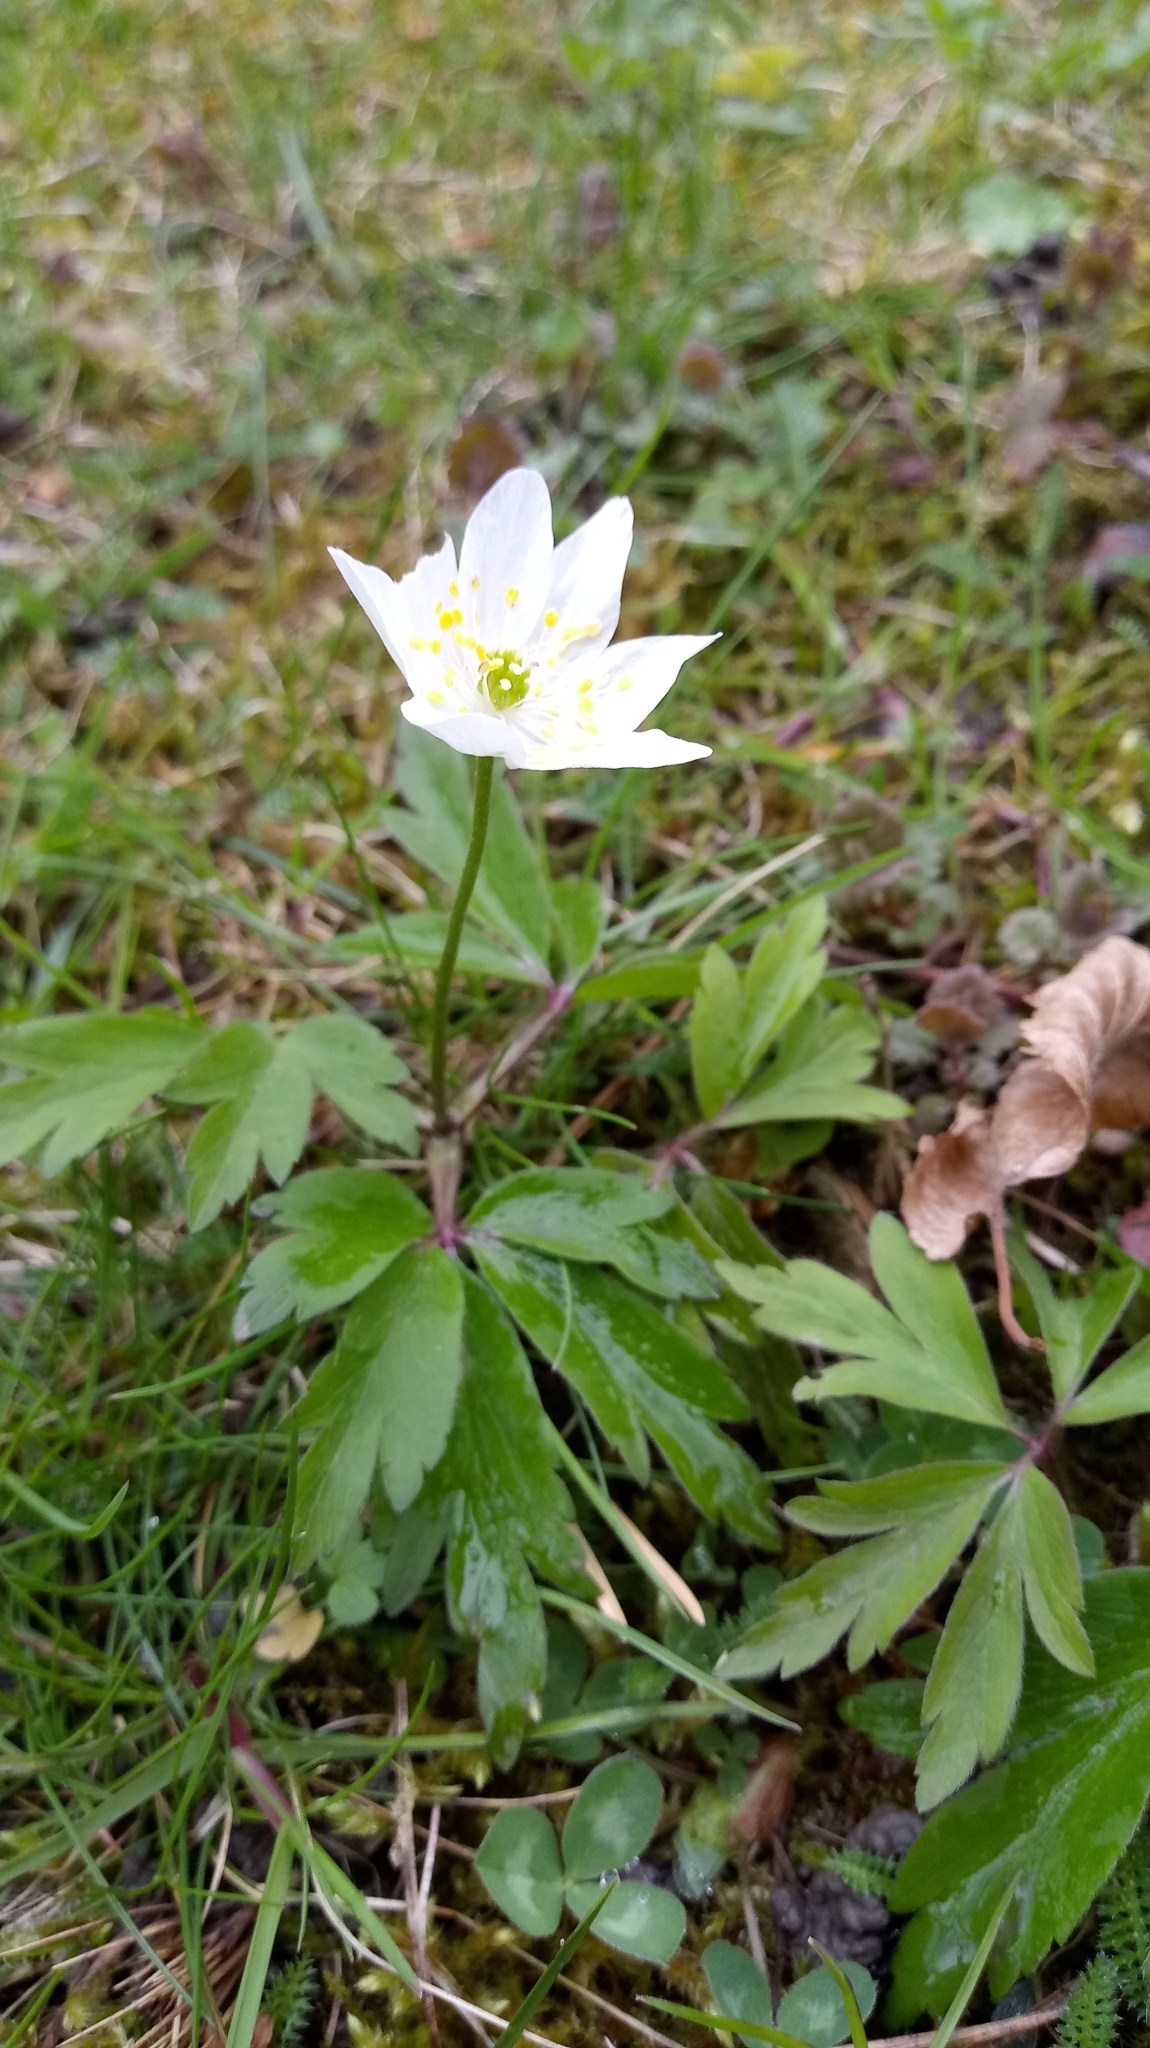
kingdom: Plantae
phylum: Tracheophyta
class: Magnoliopsida
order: Ranunculales
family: Ranunculaceae
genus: Anemone
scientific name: Anemone nemorosa
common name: Wood anemone
